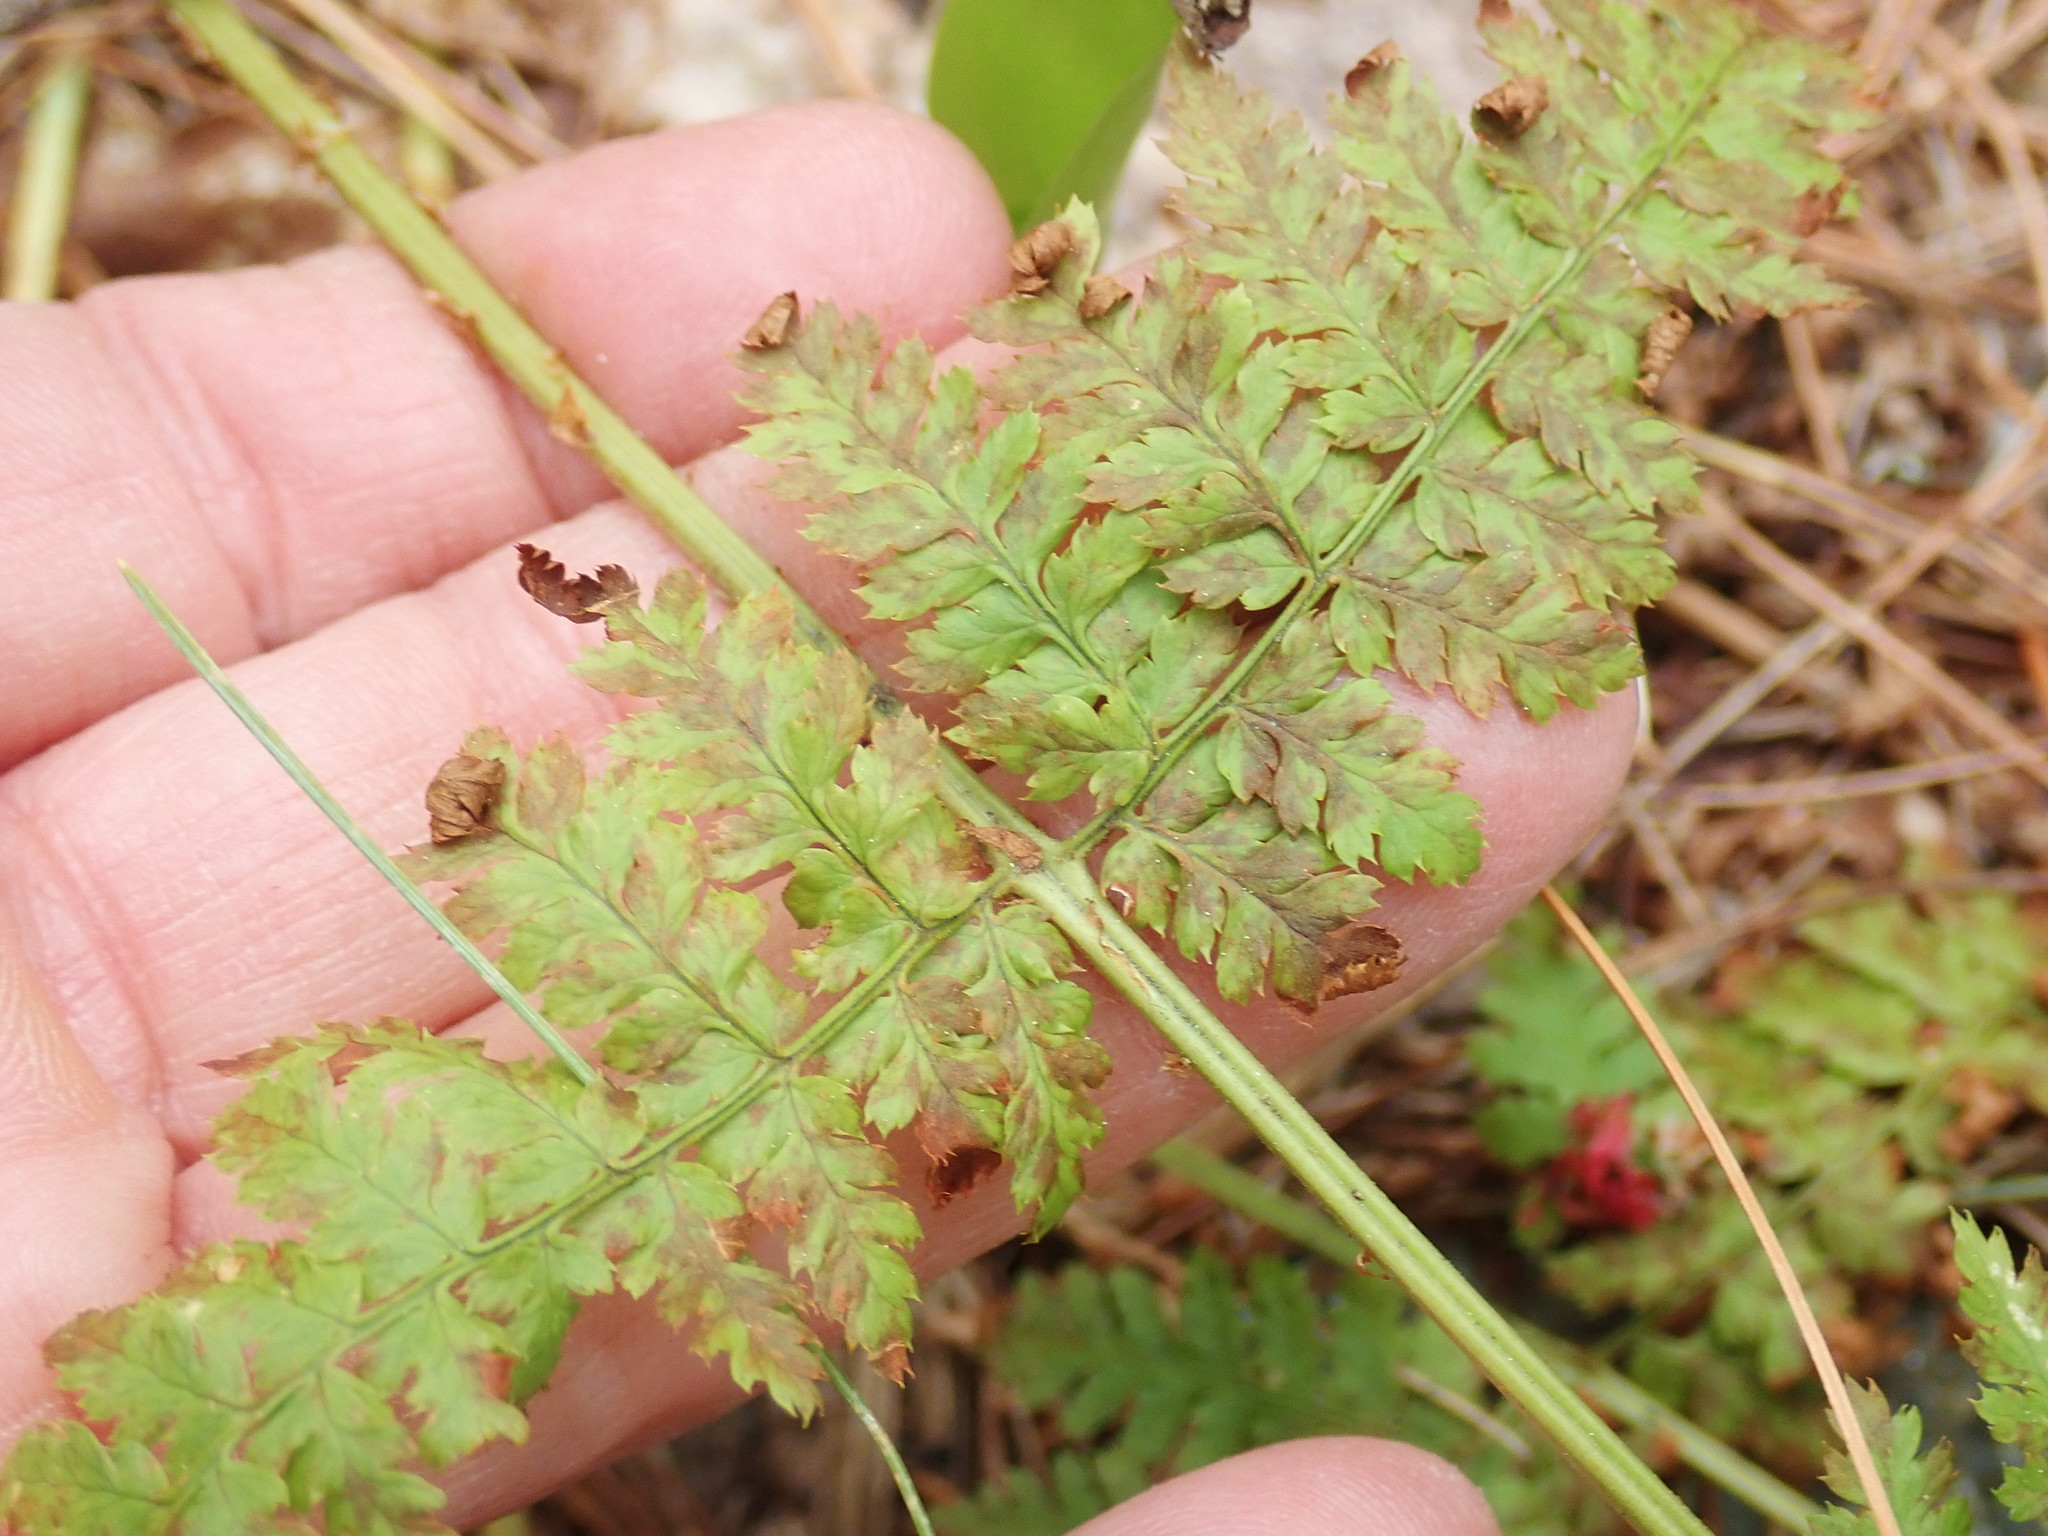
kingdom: Plantae
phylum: Tracheophyta
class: Polypodiopsida
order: Polypodiales
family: Dryopteridaceae
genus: Dryopteris
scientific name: Dryopteris intermedia
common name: Evergreen wood fern
